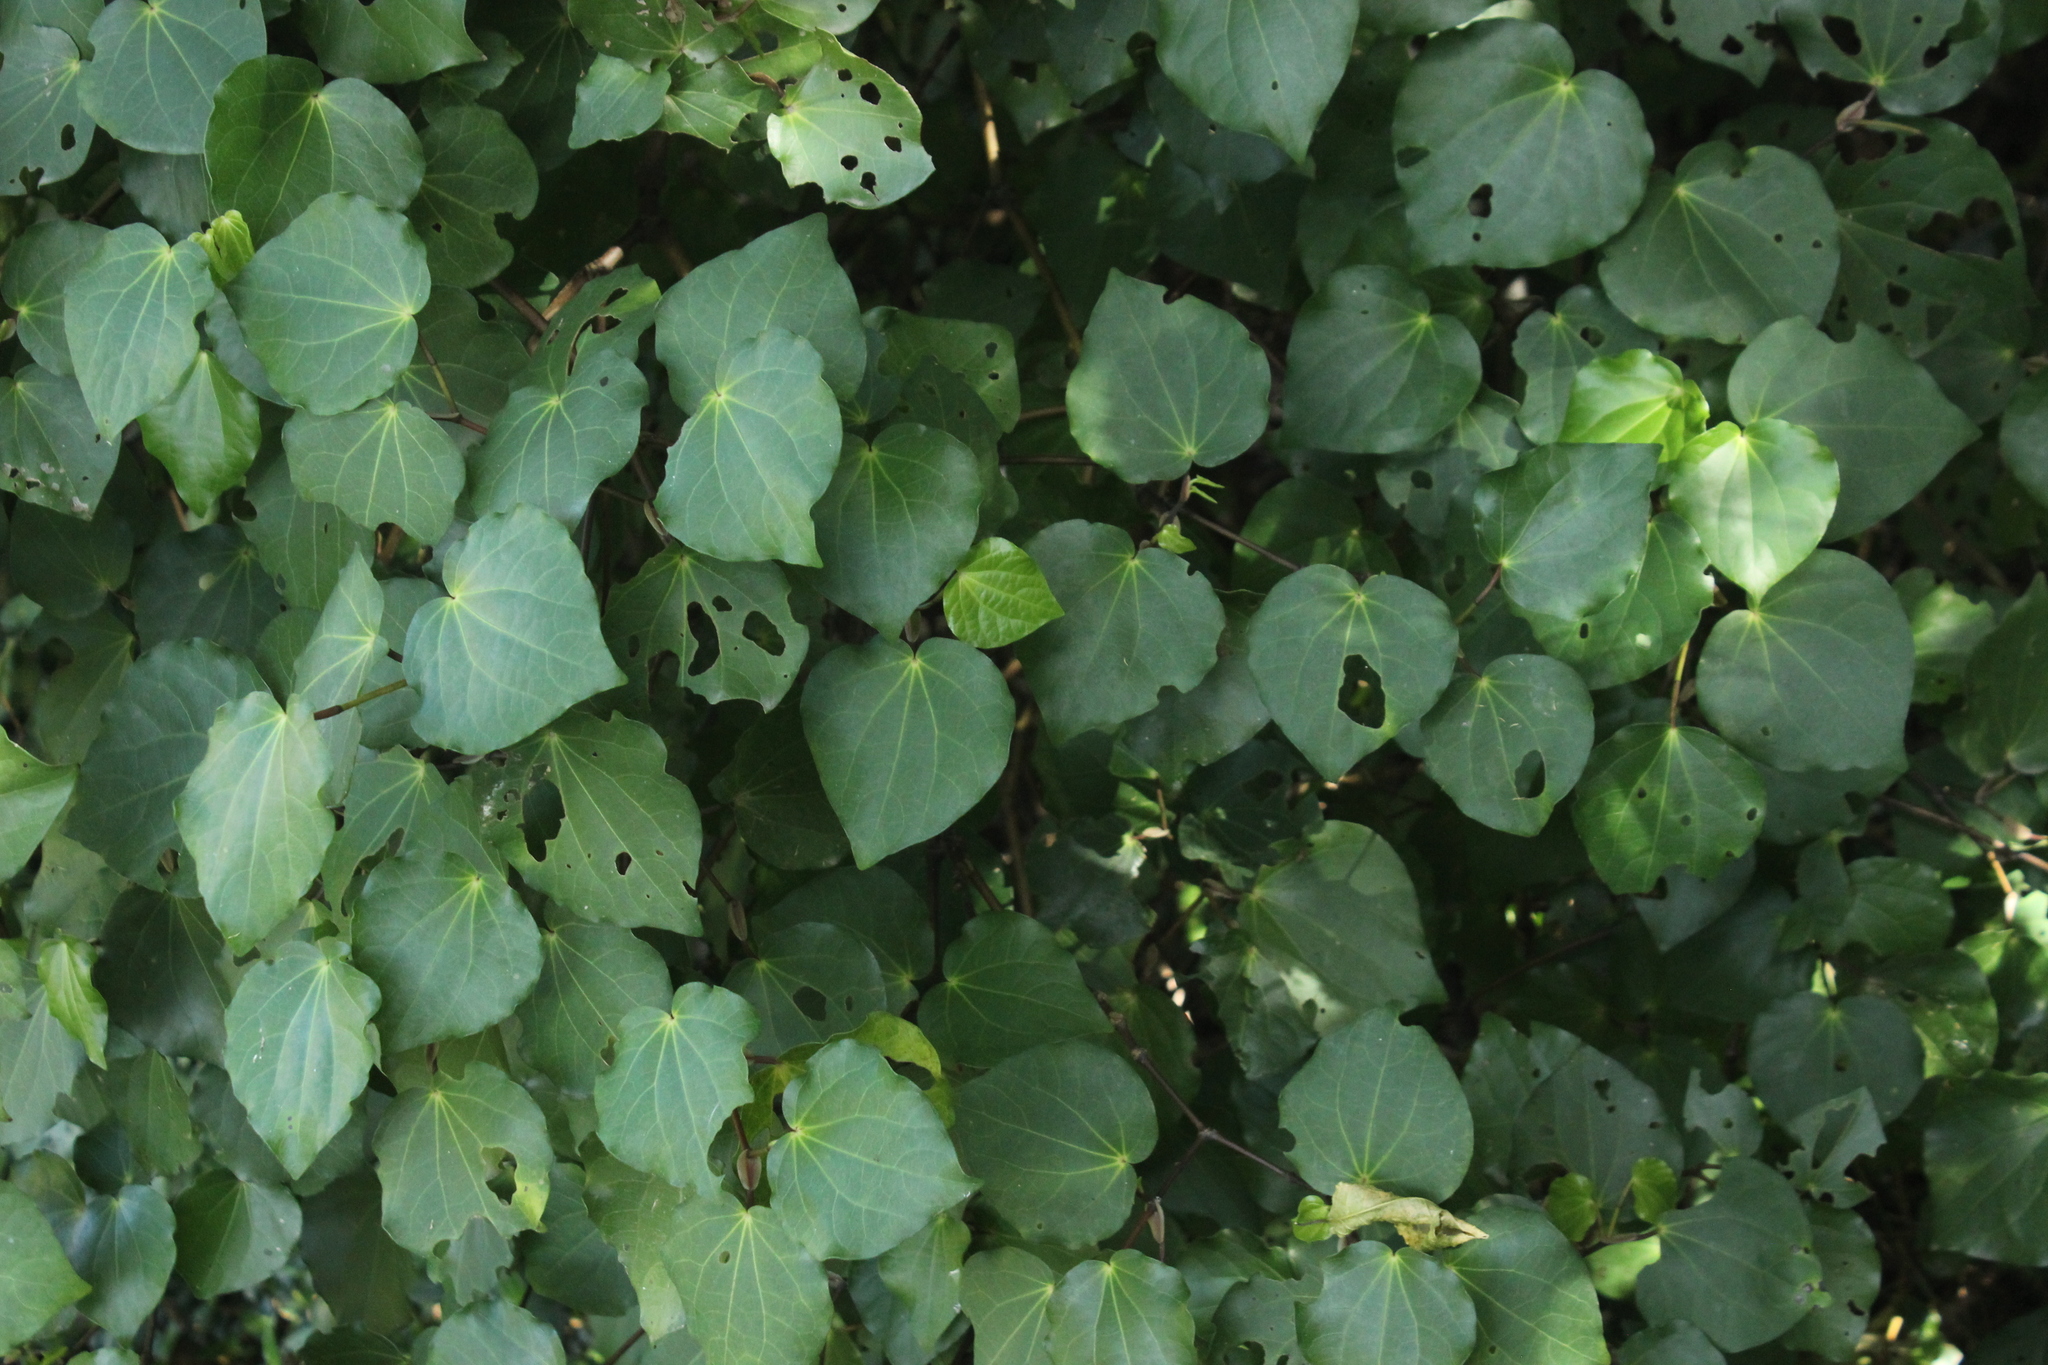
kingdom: Plantae
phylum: Tracheophyta
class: Magnoliopsida
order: Piperales
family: Piperaceae
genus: Macropiper
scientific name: Macropiper excelsum
